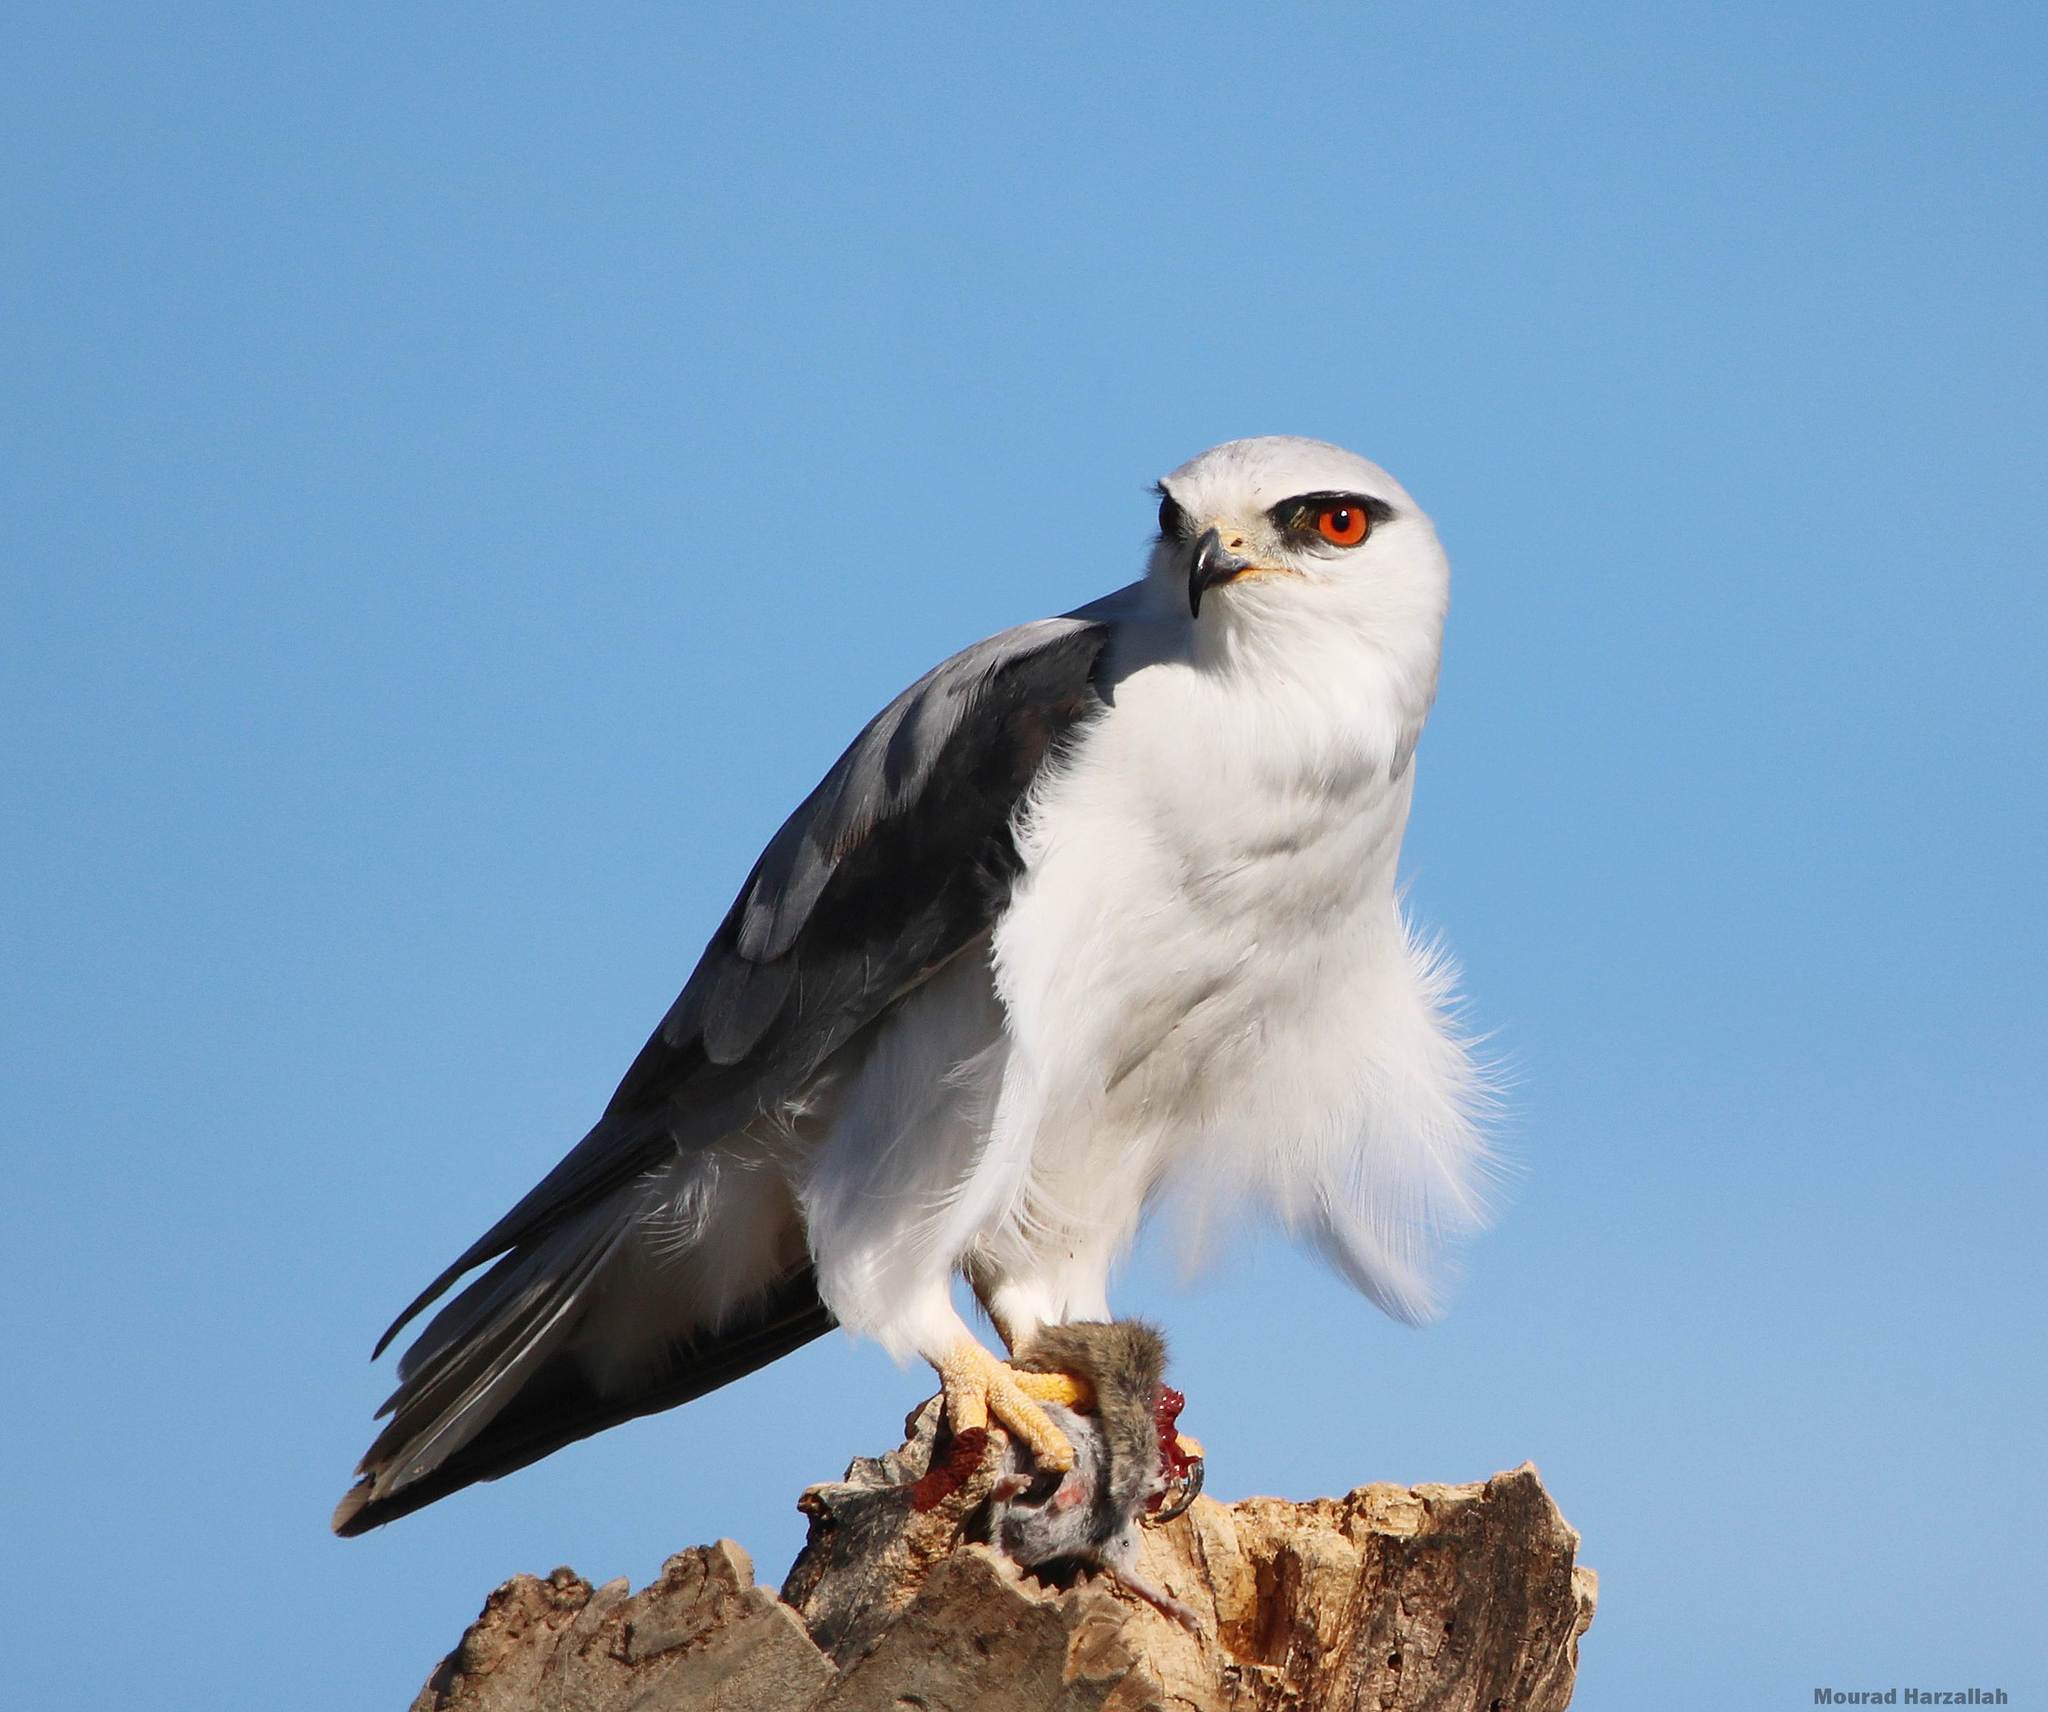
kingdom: Animalia
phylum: Chordata
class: Aves
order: Accipitriformes
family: Accipitridae
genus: Elanus
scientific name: Elanus caeruleus
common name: Black-winged kite
